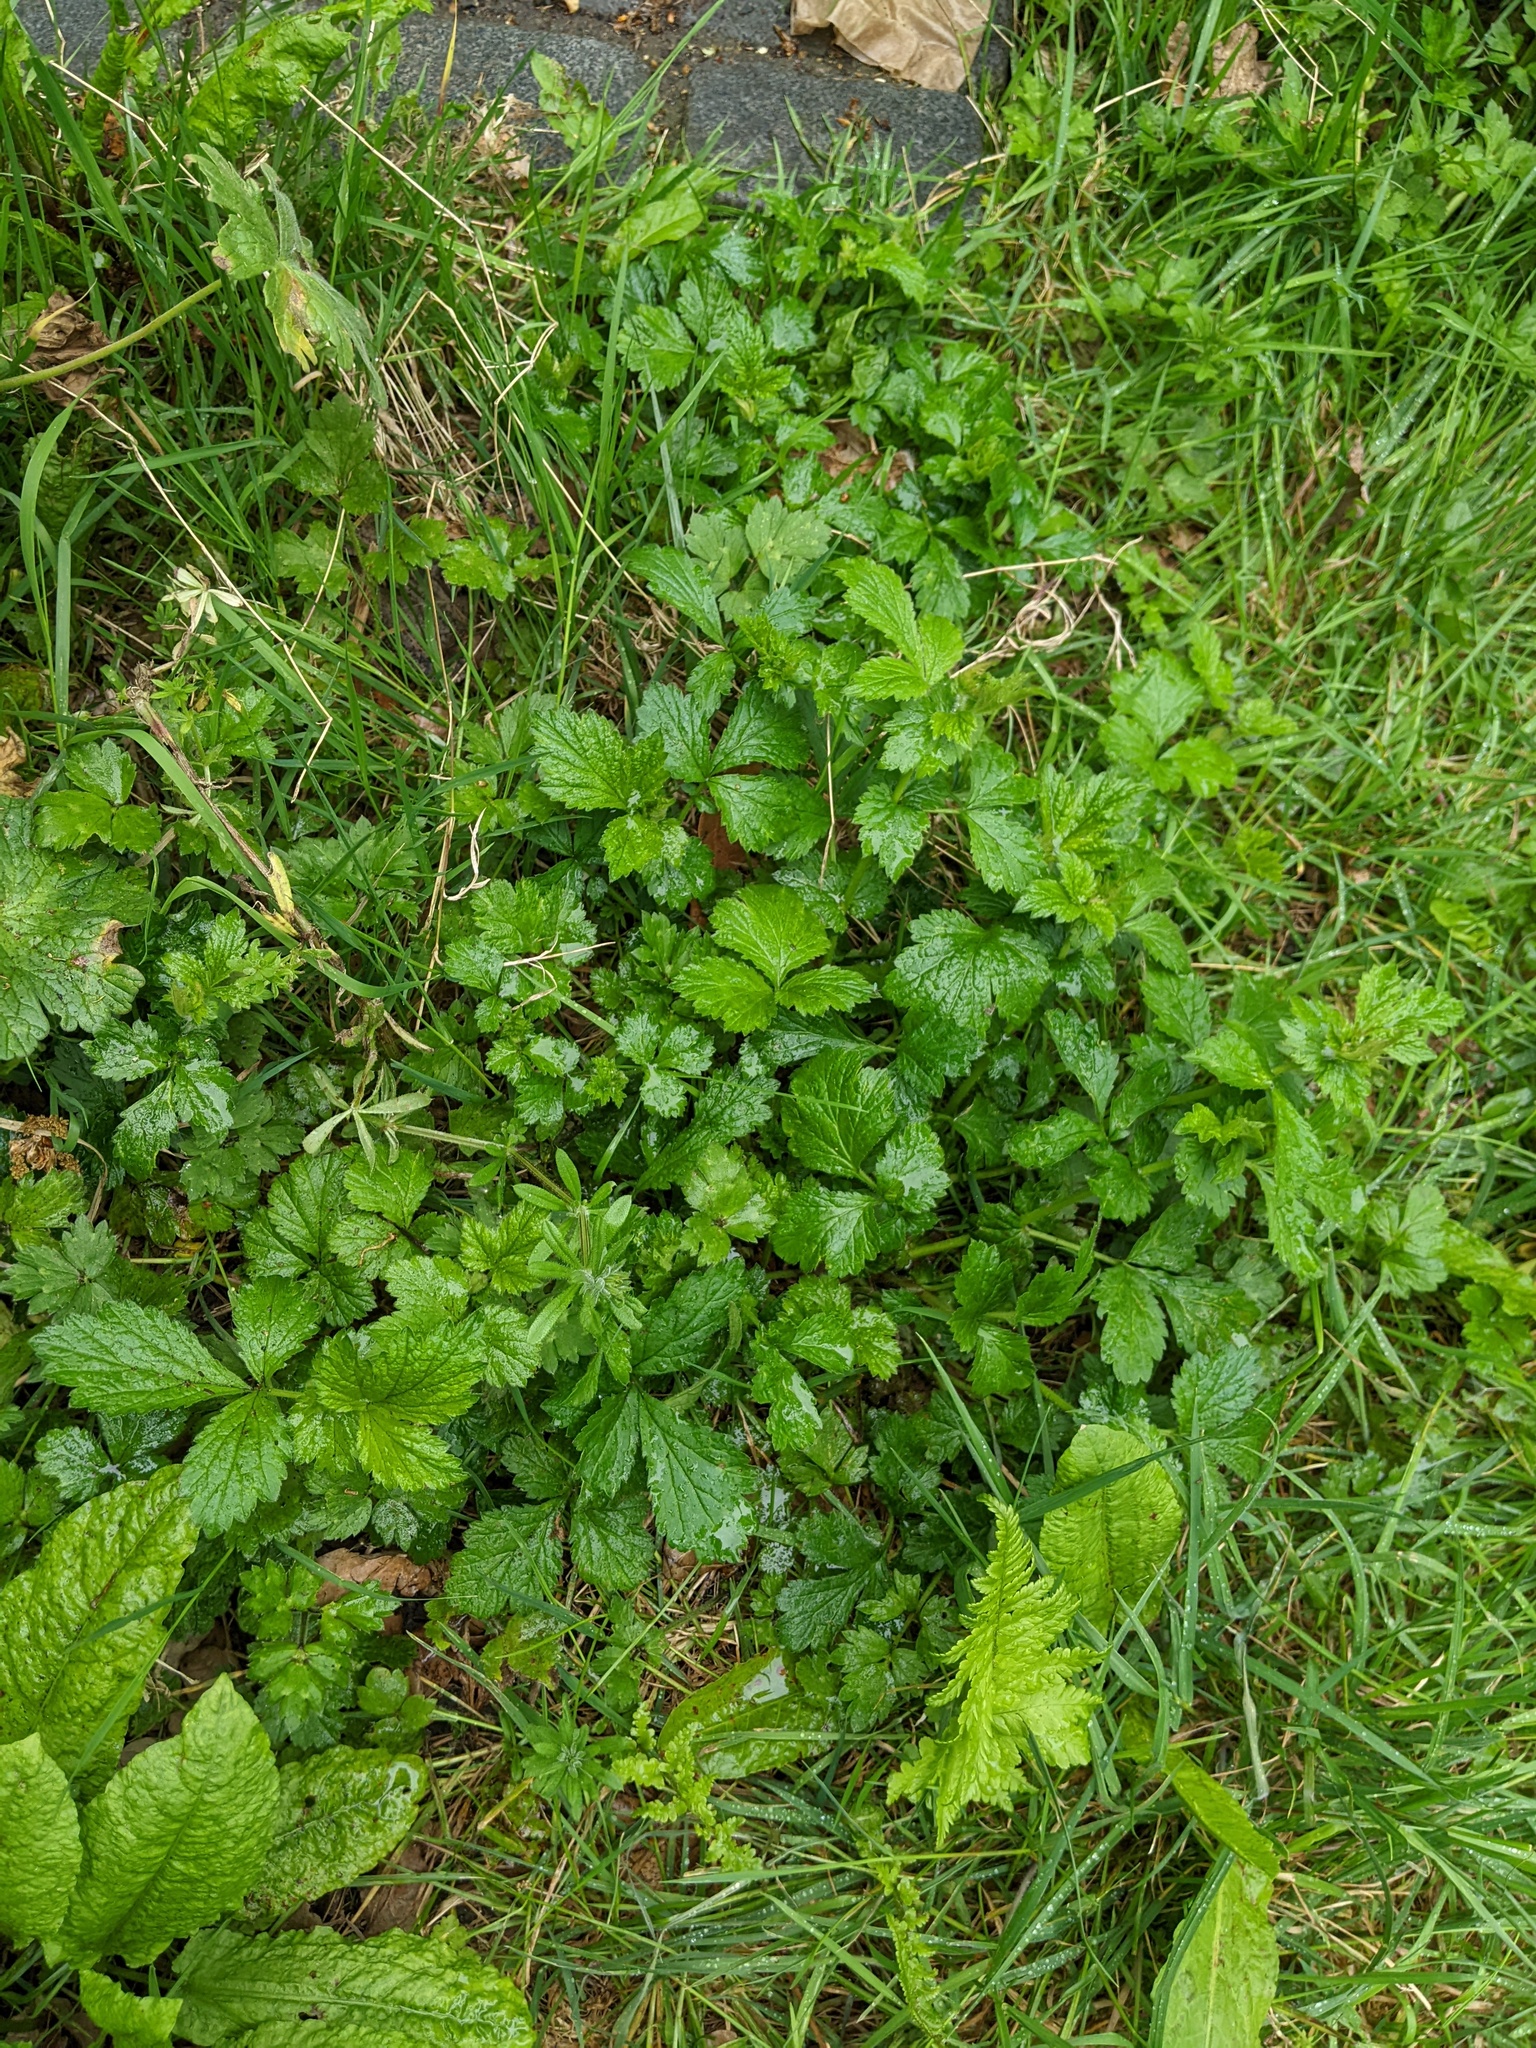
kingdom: Plantae
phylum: Tracheophyta
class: Magnoliopsida
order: Rosales
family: Rosaceae
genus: Geum
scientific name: Geum urbanum
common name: Wood avens
